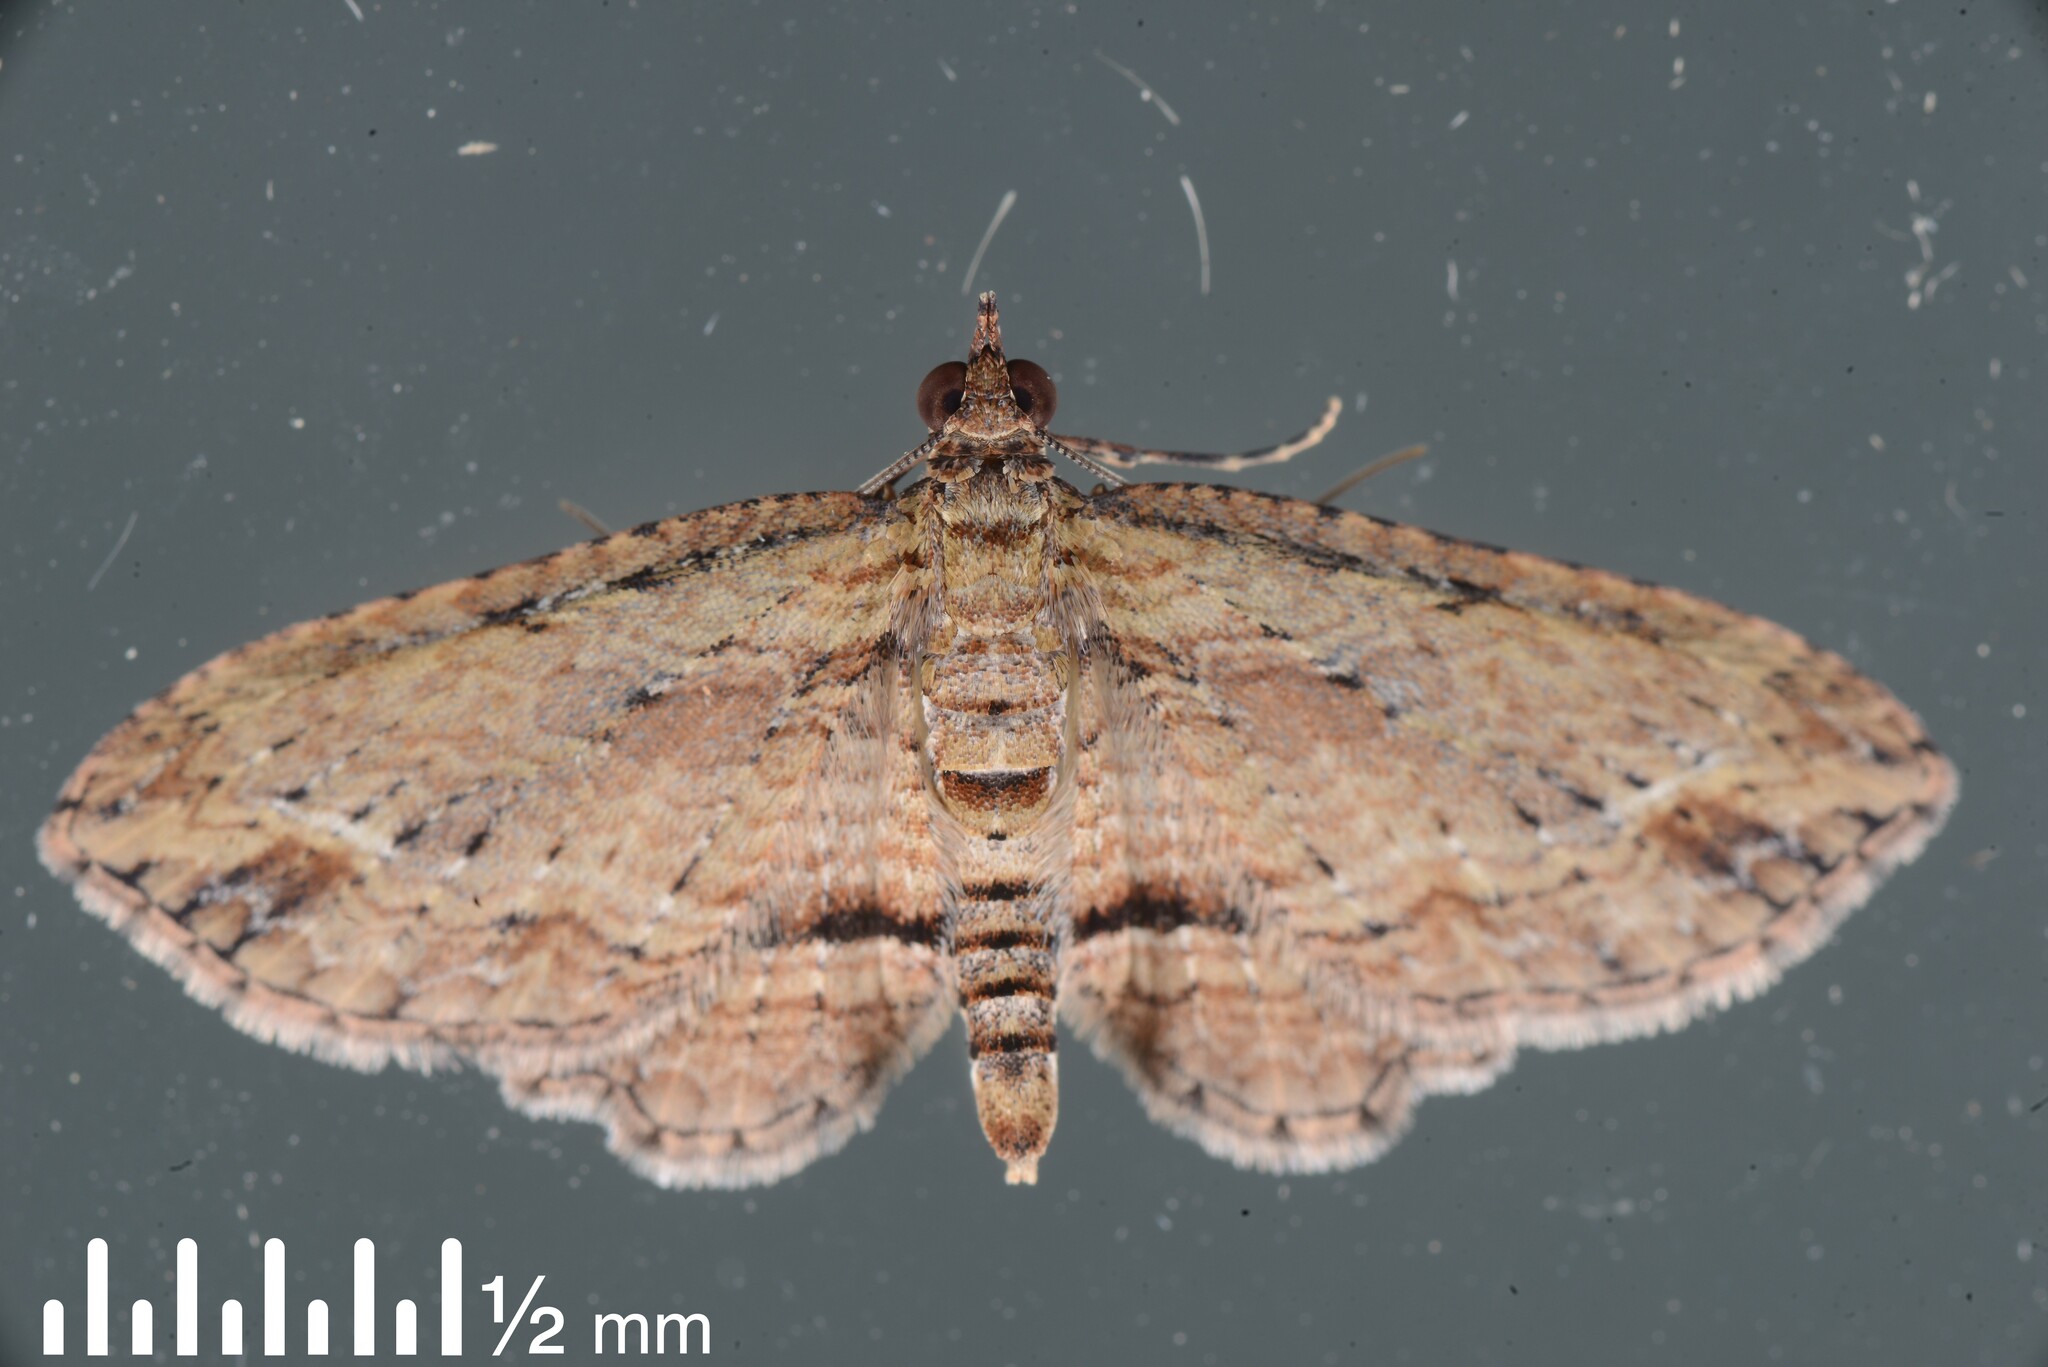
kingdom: Animalia
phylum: Arthropoda
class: Insecta
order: Lepidoptera
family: Geometridae
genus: Chloroclystis
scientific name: Chloroclystis filata
